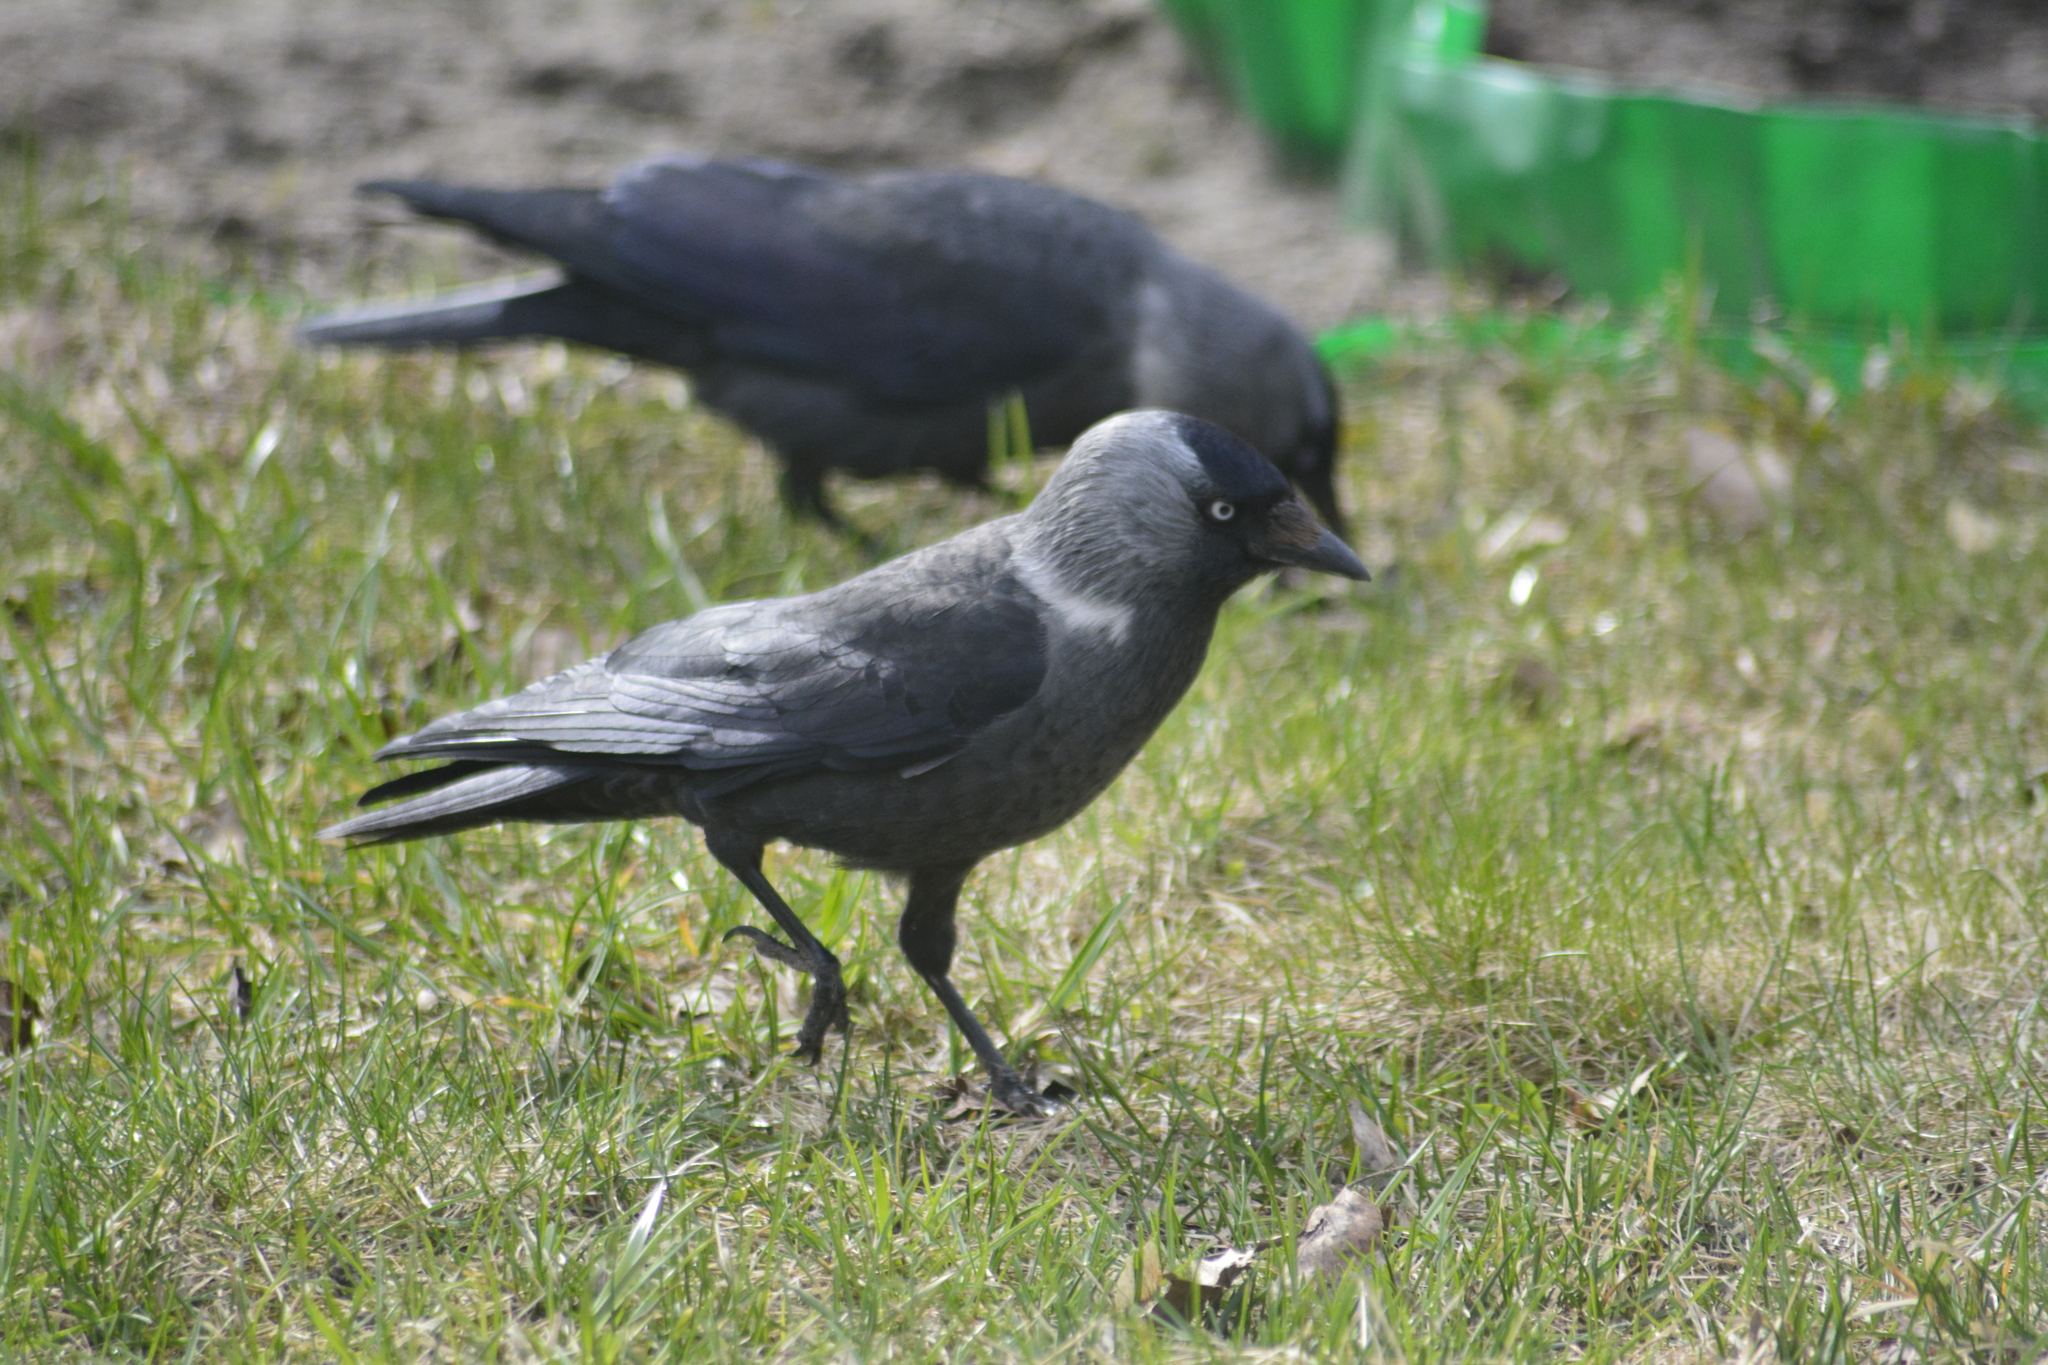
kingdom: Animalia
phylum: Chordata
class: Aves
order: Passeriformes
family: Corvidae
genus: Coloeus
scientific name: Coloeus monedula
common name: Western jackdaw
